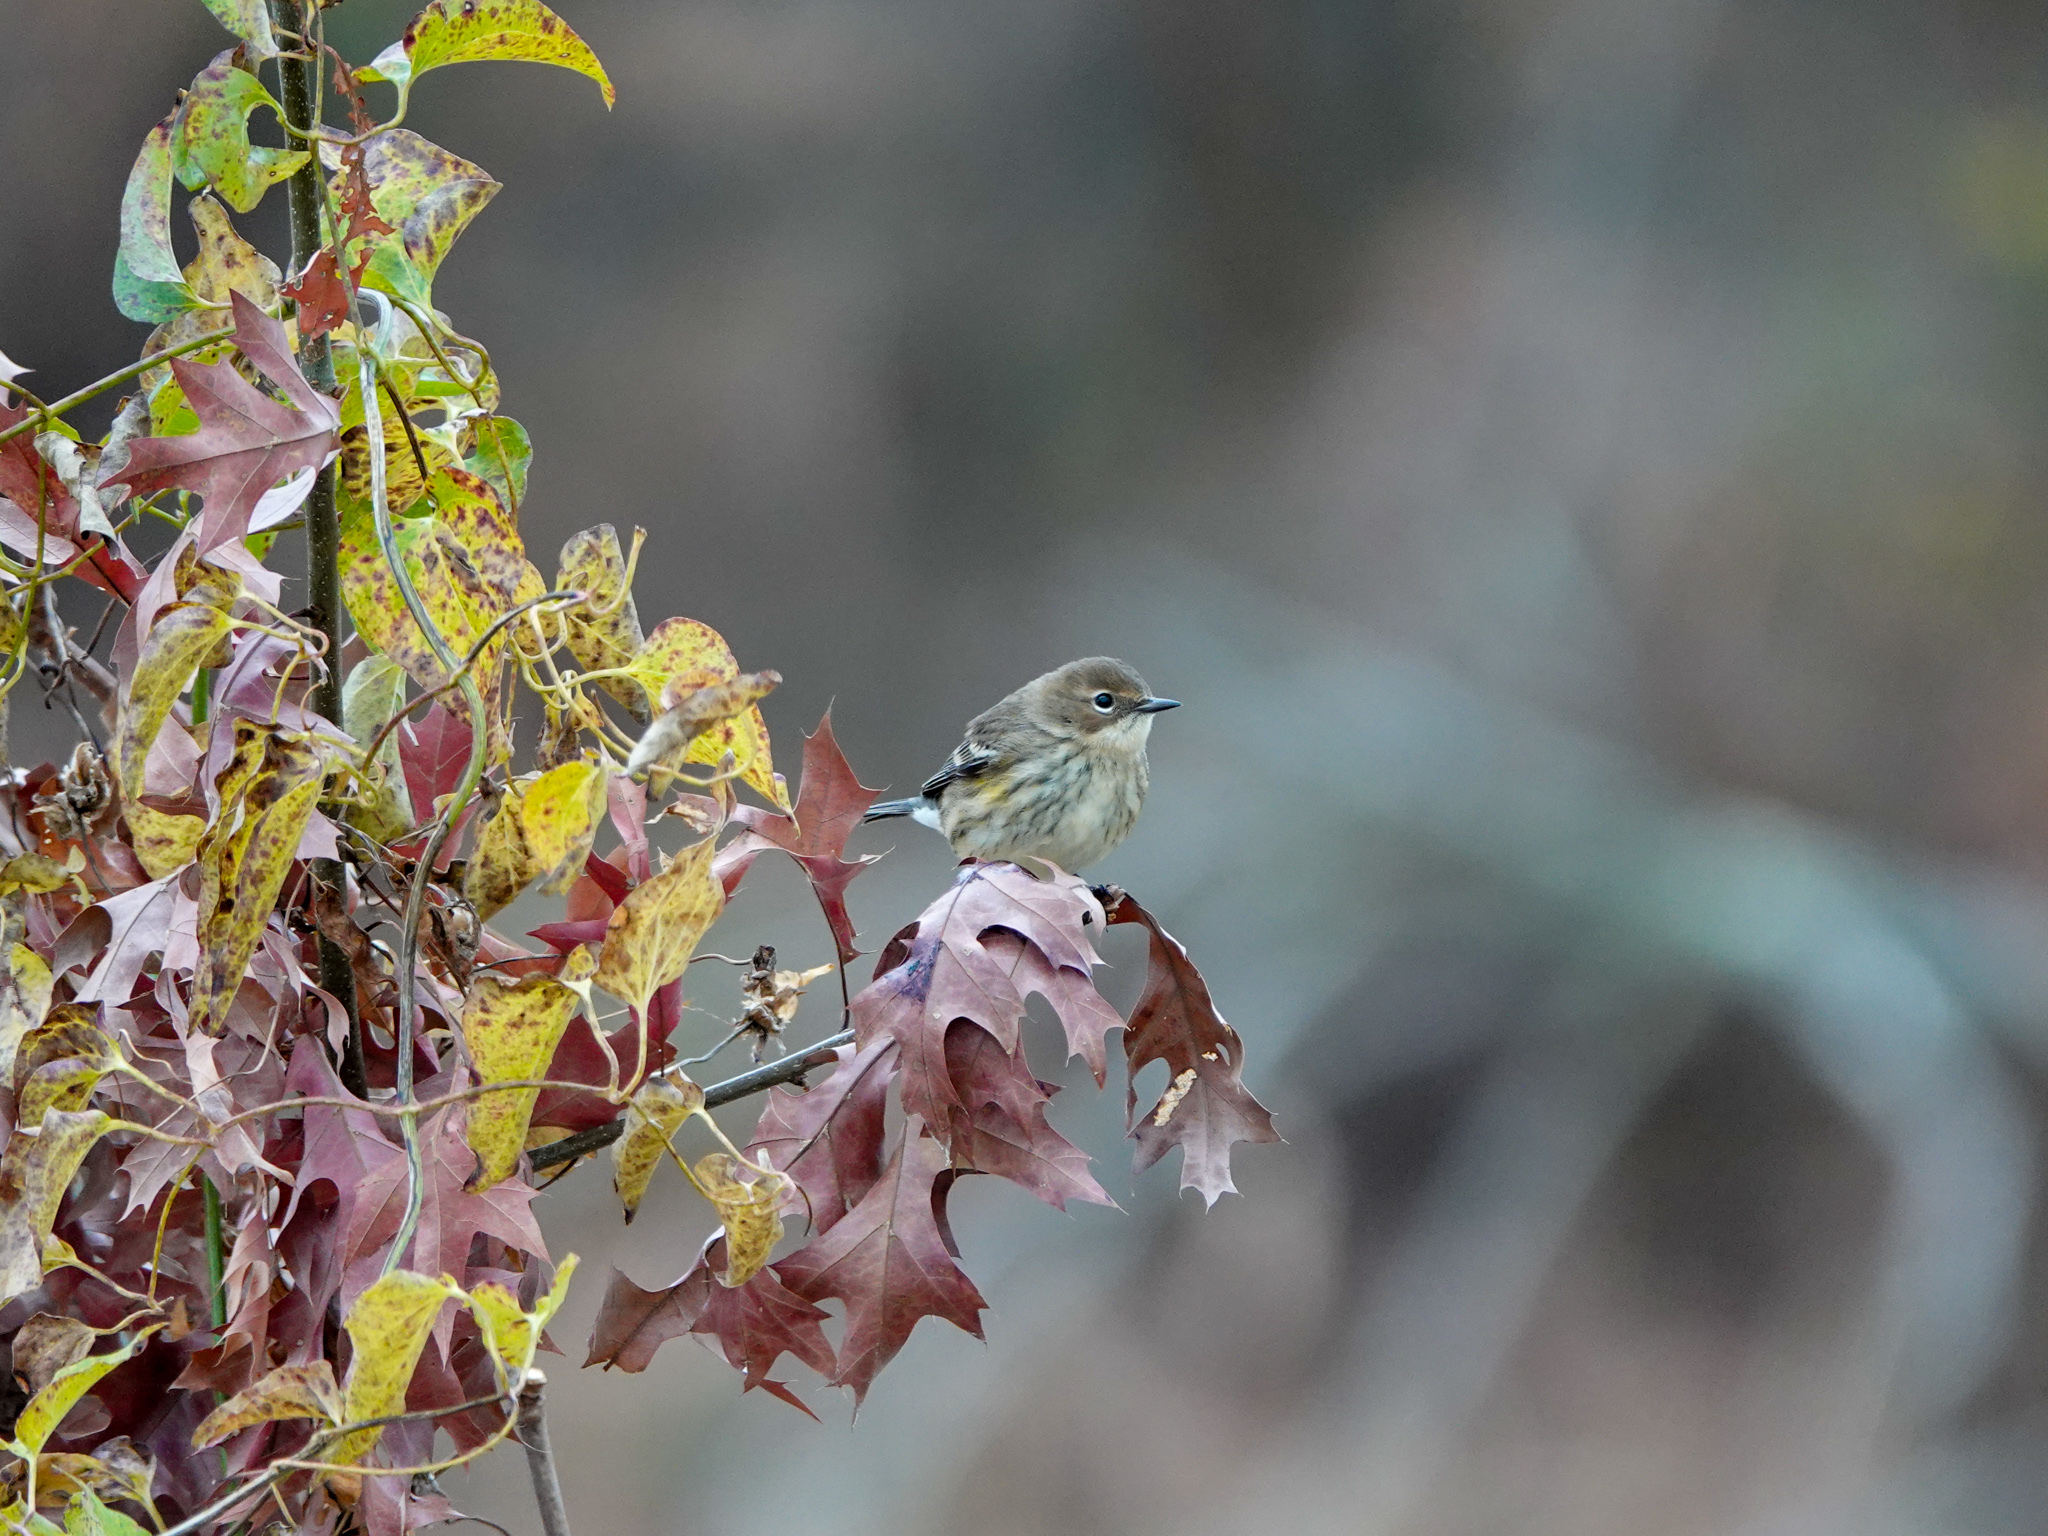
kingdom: Animalia
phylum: Chordata
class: Aves
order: Passeriformes
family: Parulidae
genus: Setophaga
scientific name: Setophaga coronata
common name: Myrtle warbler
